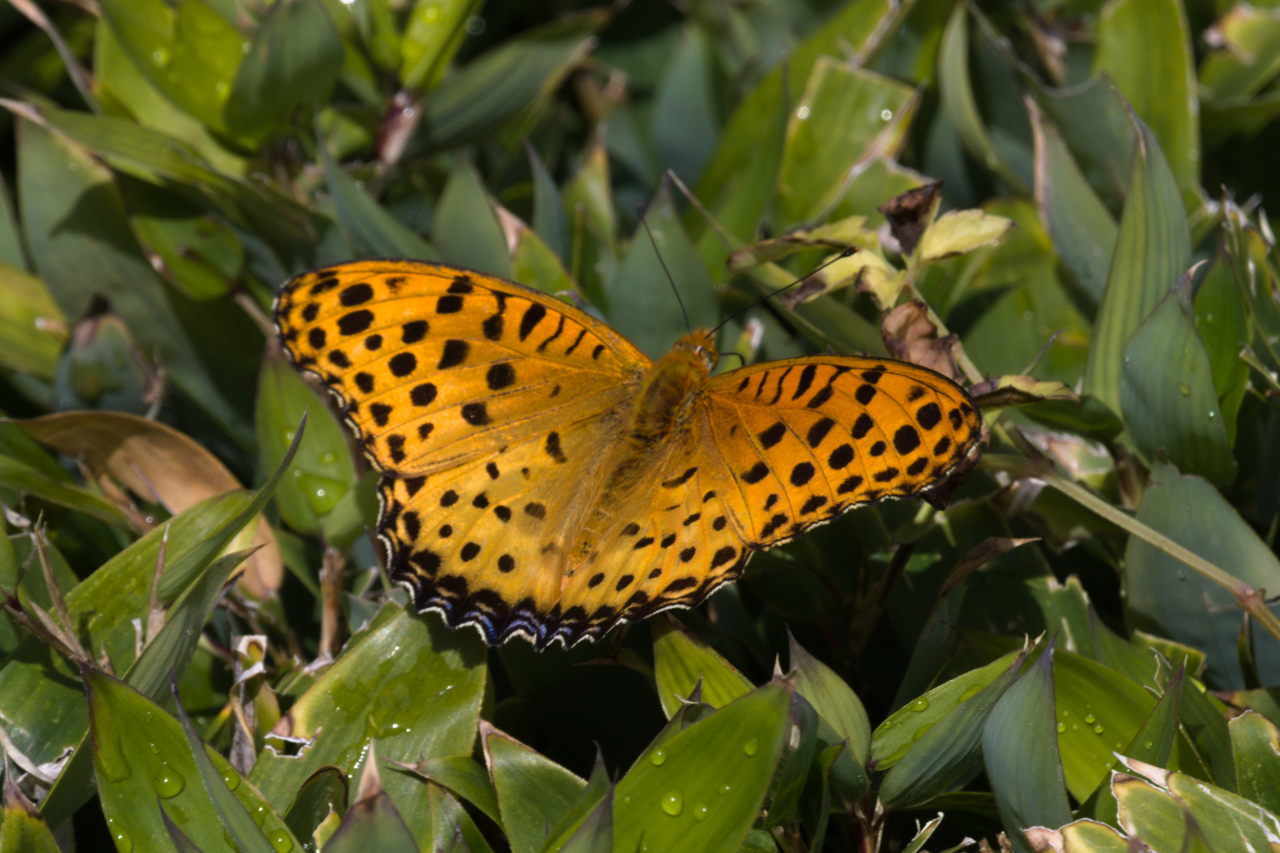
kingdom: Animalia
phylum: Arthropoda
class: Insecta
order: Lepidoptera
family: Nymphalidae
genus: Argynnis
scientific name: Argynnis hyperbius
